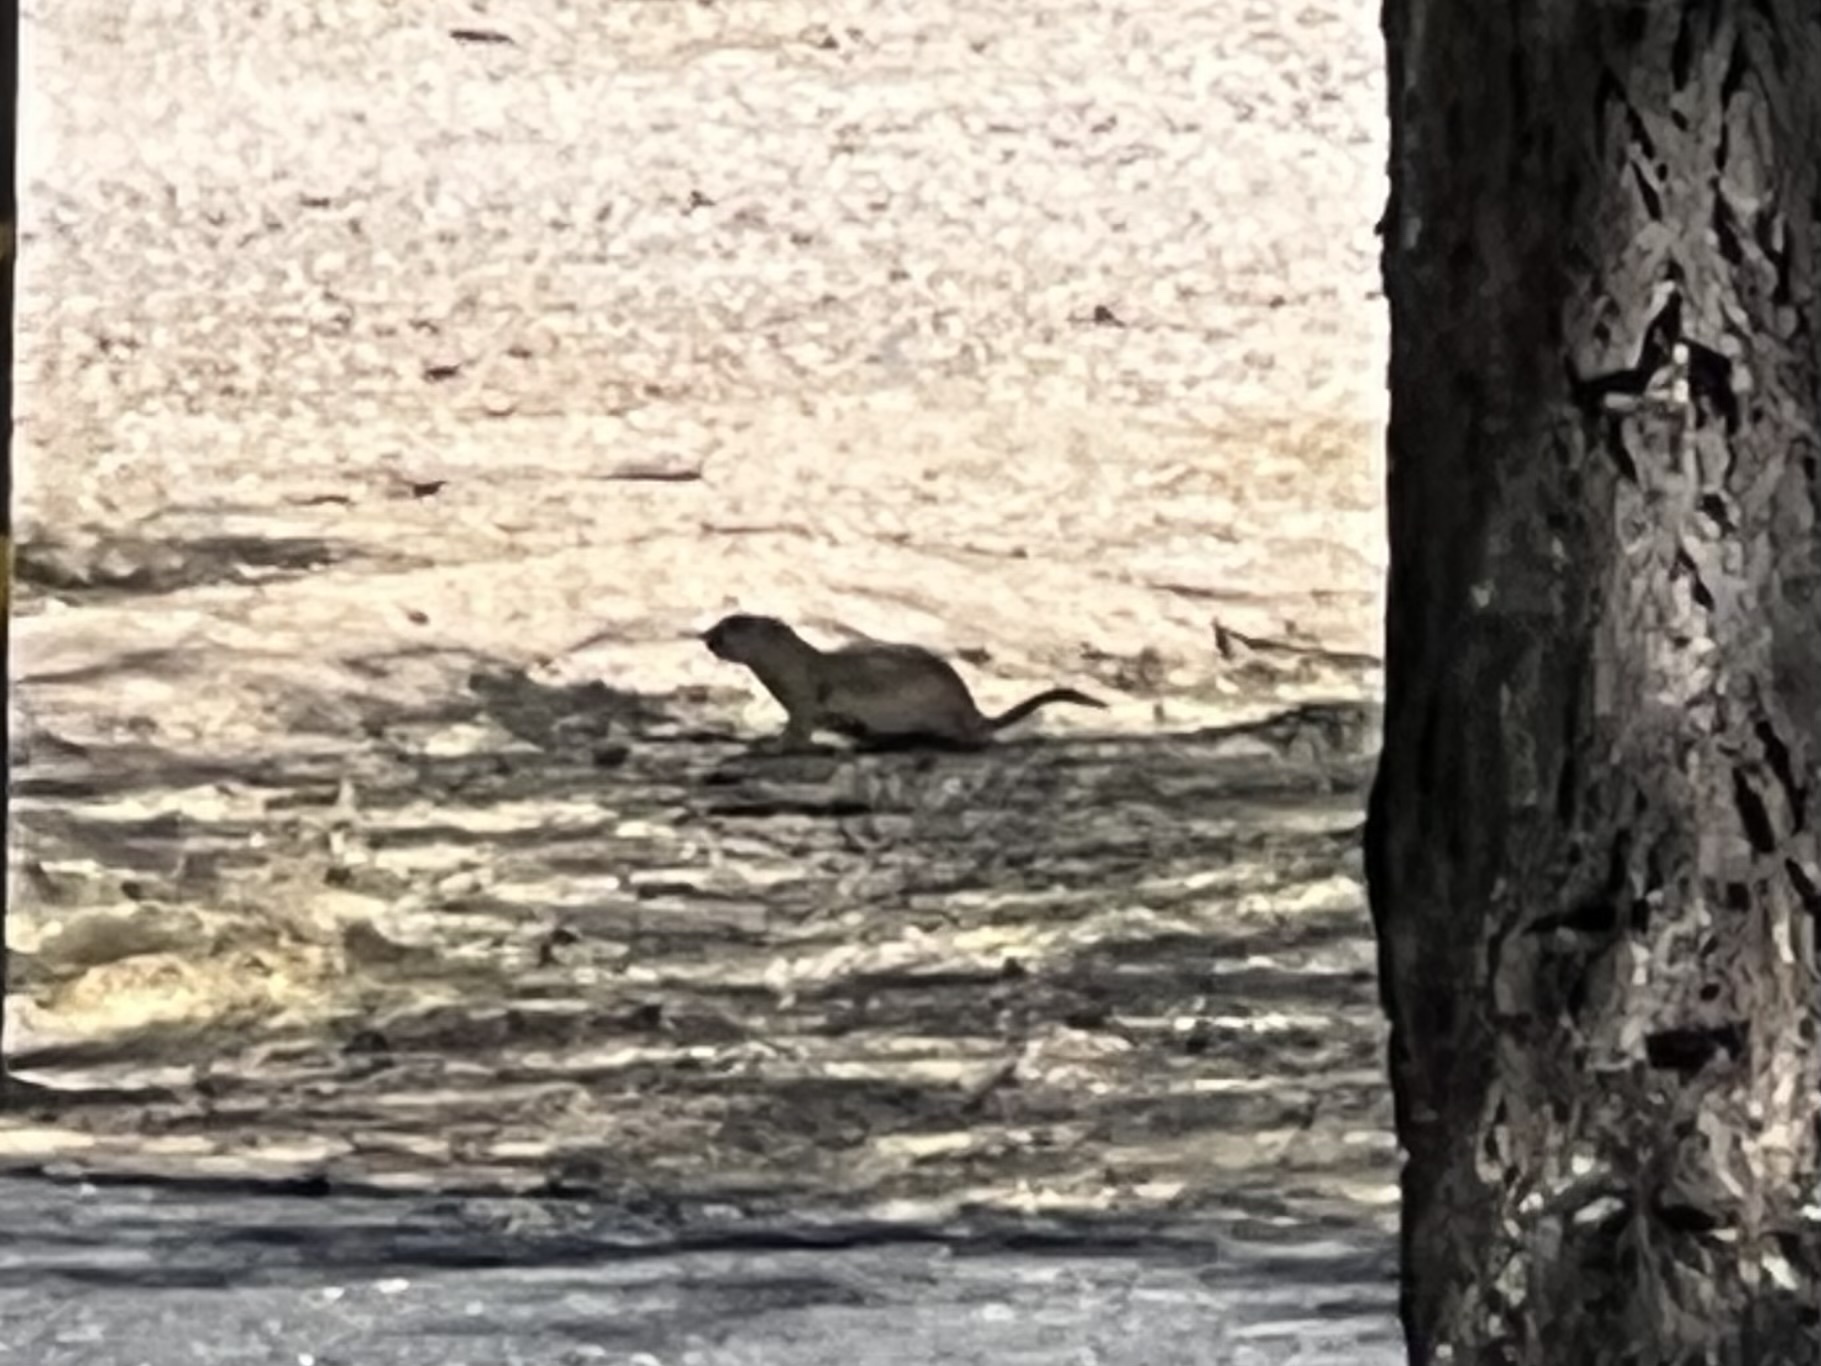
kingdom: Animalia
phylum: Chordata
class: Mammalia
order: Rodentia
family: Sciuridae
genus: Xerospermophilus
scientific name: Xerospermophilus tereticaudus
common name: Round-tailed ground squirrel
